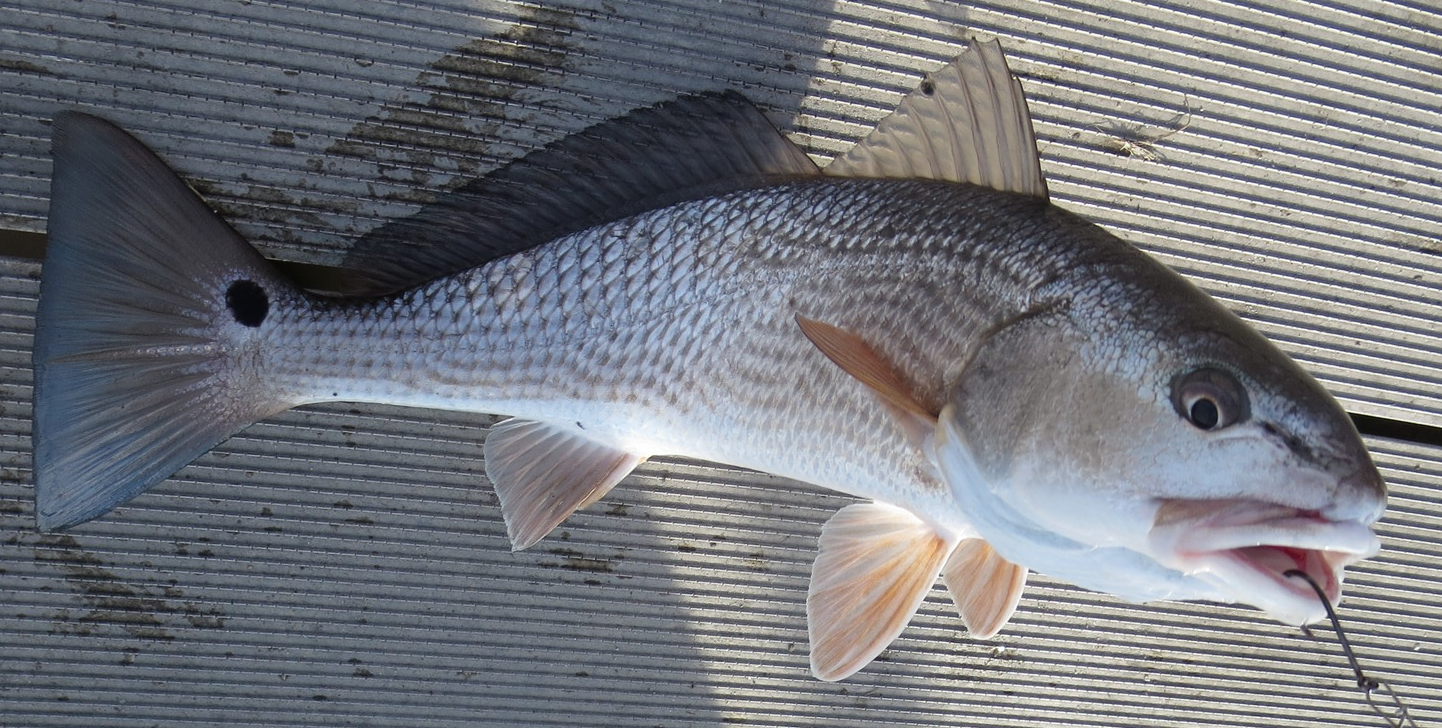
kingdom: Animalia
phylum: Chordata
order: Perciformes
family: Sciaenidae
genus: Sciaenops
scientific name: Sciaenops ocellatus
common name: Red drum
